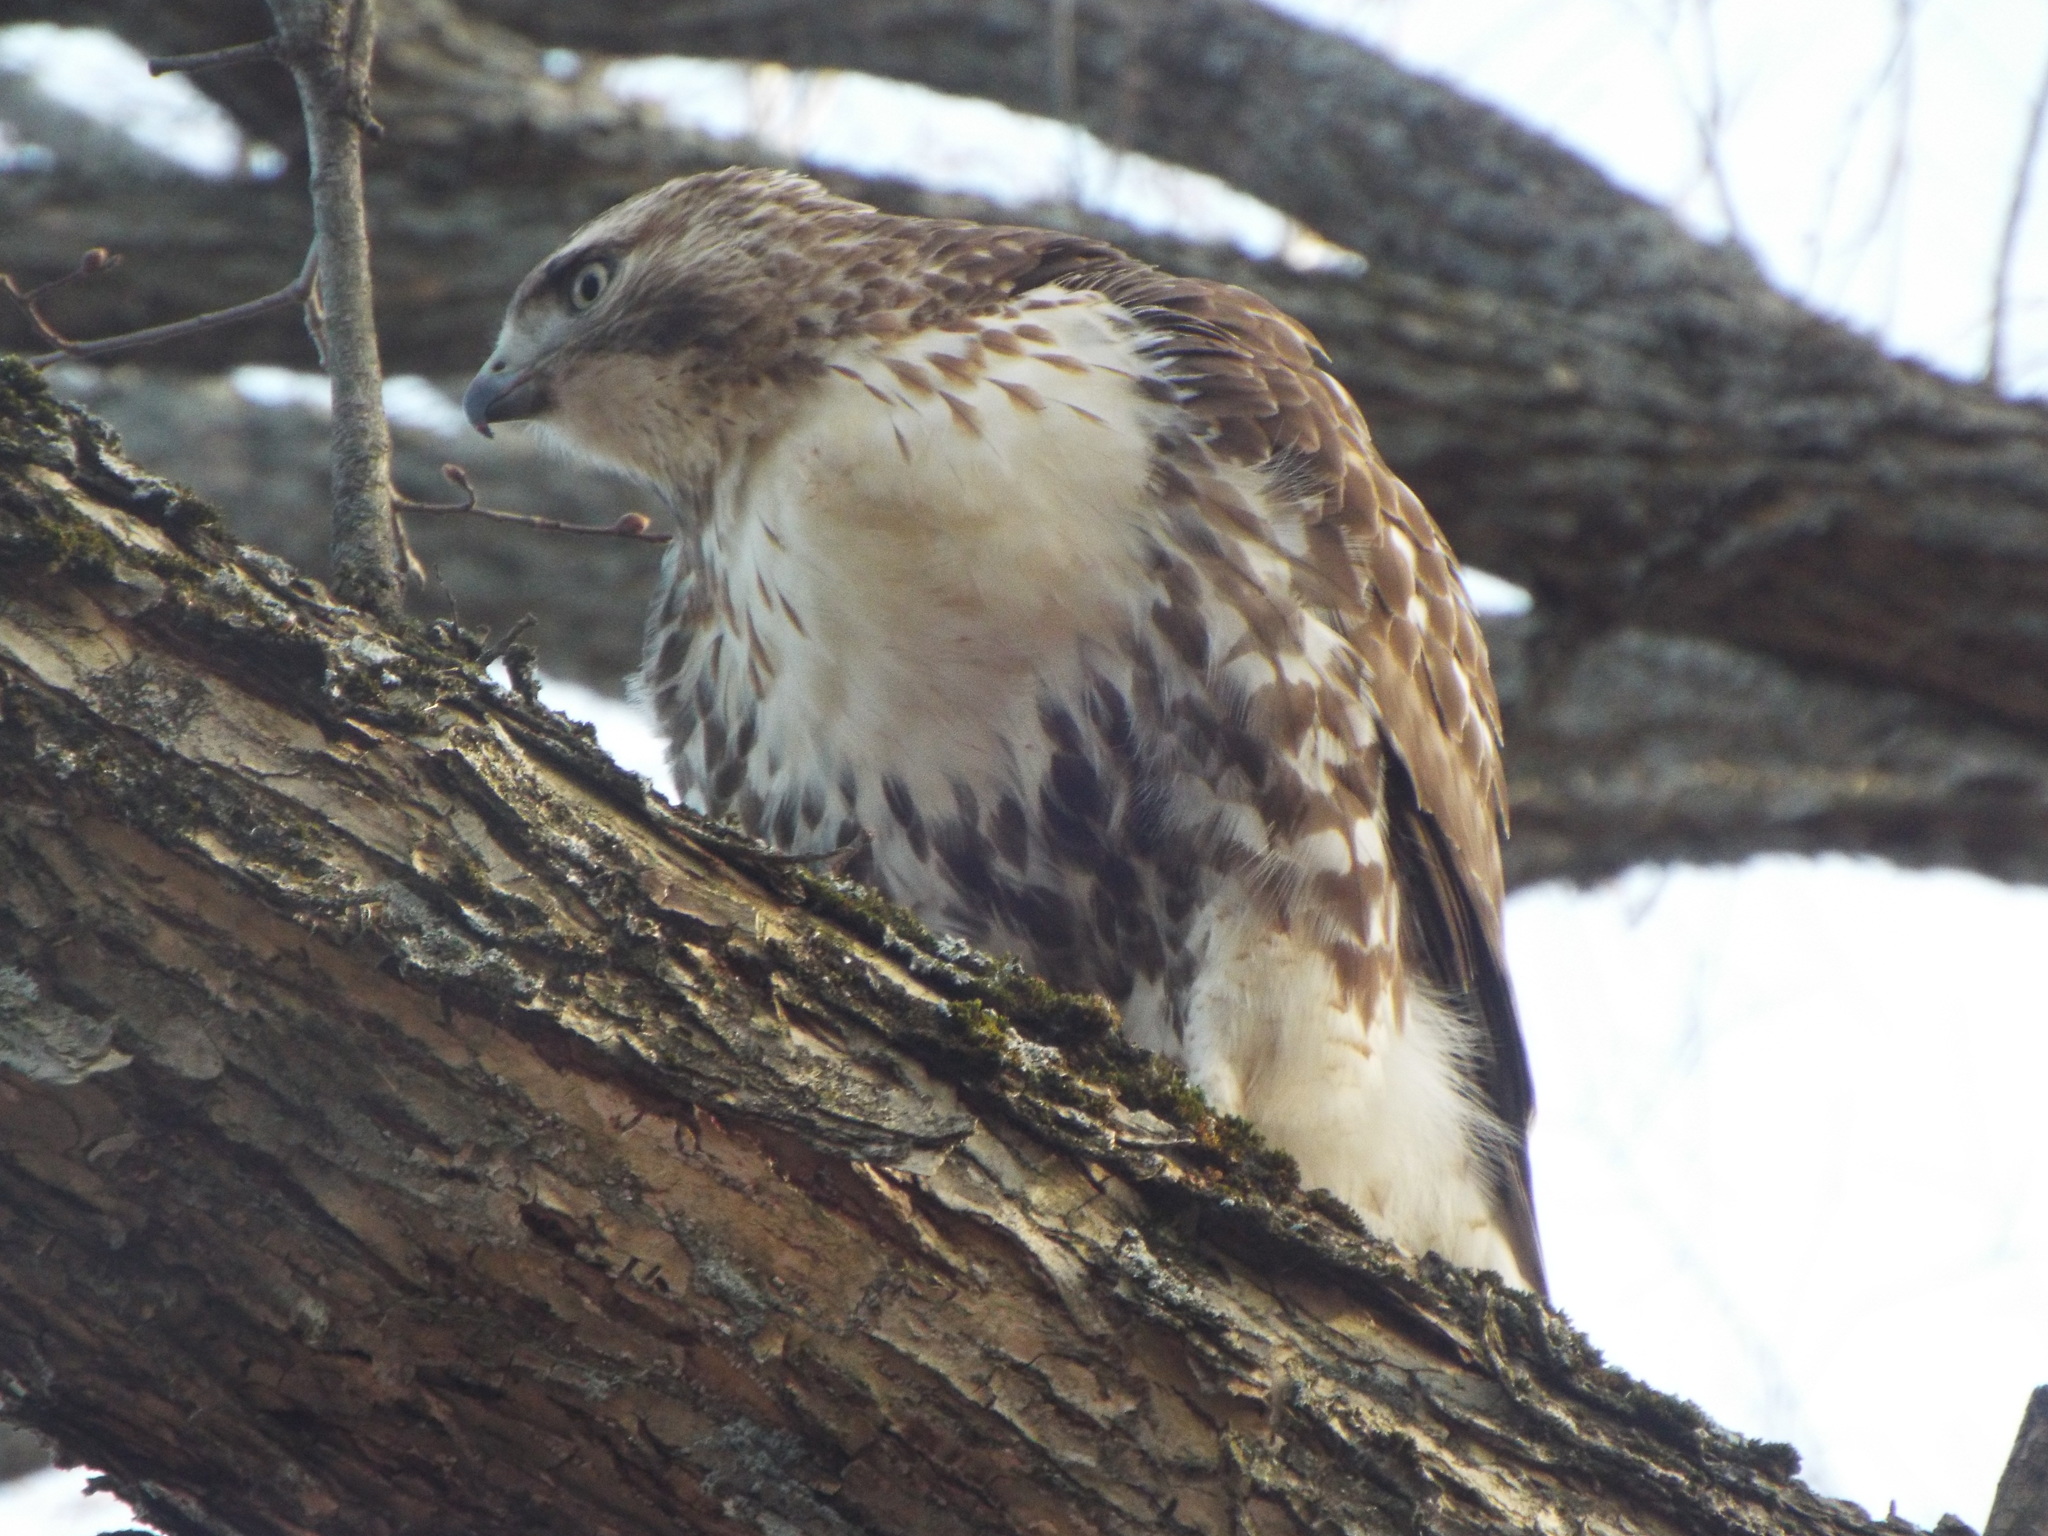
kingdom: Animalia
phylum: Chordata
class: Aves
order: Accipitriformes
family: Accipitridae
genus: Buteo
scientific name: Buteo jamaicensis
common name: Red-tailed hawk
